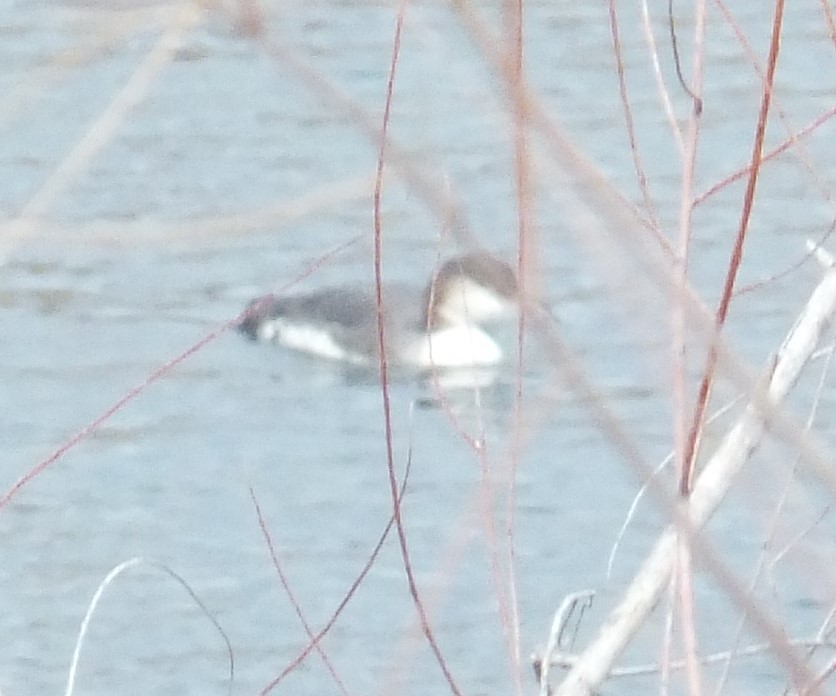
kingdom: Animalia
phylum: Chordata
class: Aves
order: Gaviiformes
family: Gaviidae
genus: Gavia
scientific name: Gavia immer
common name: Common loon
